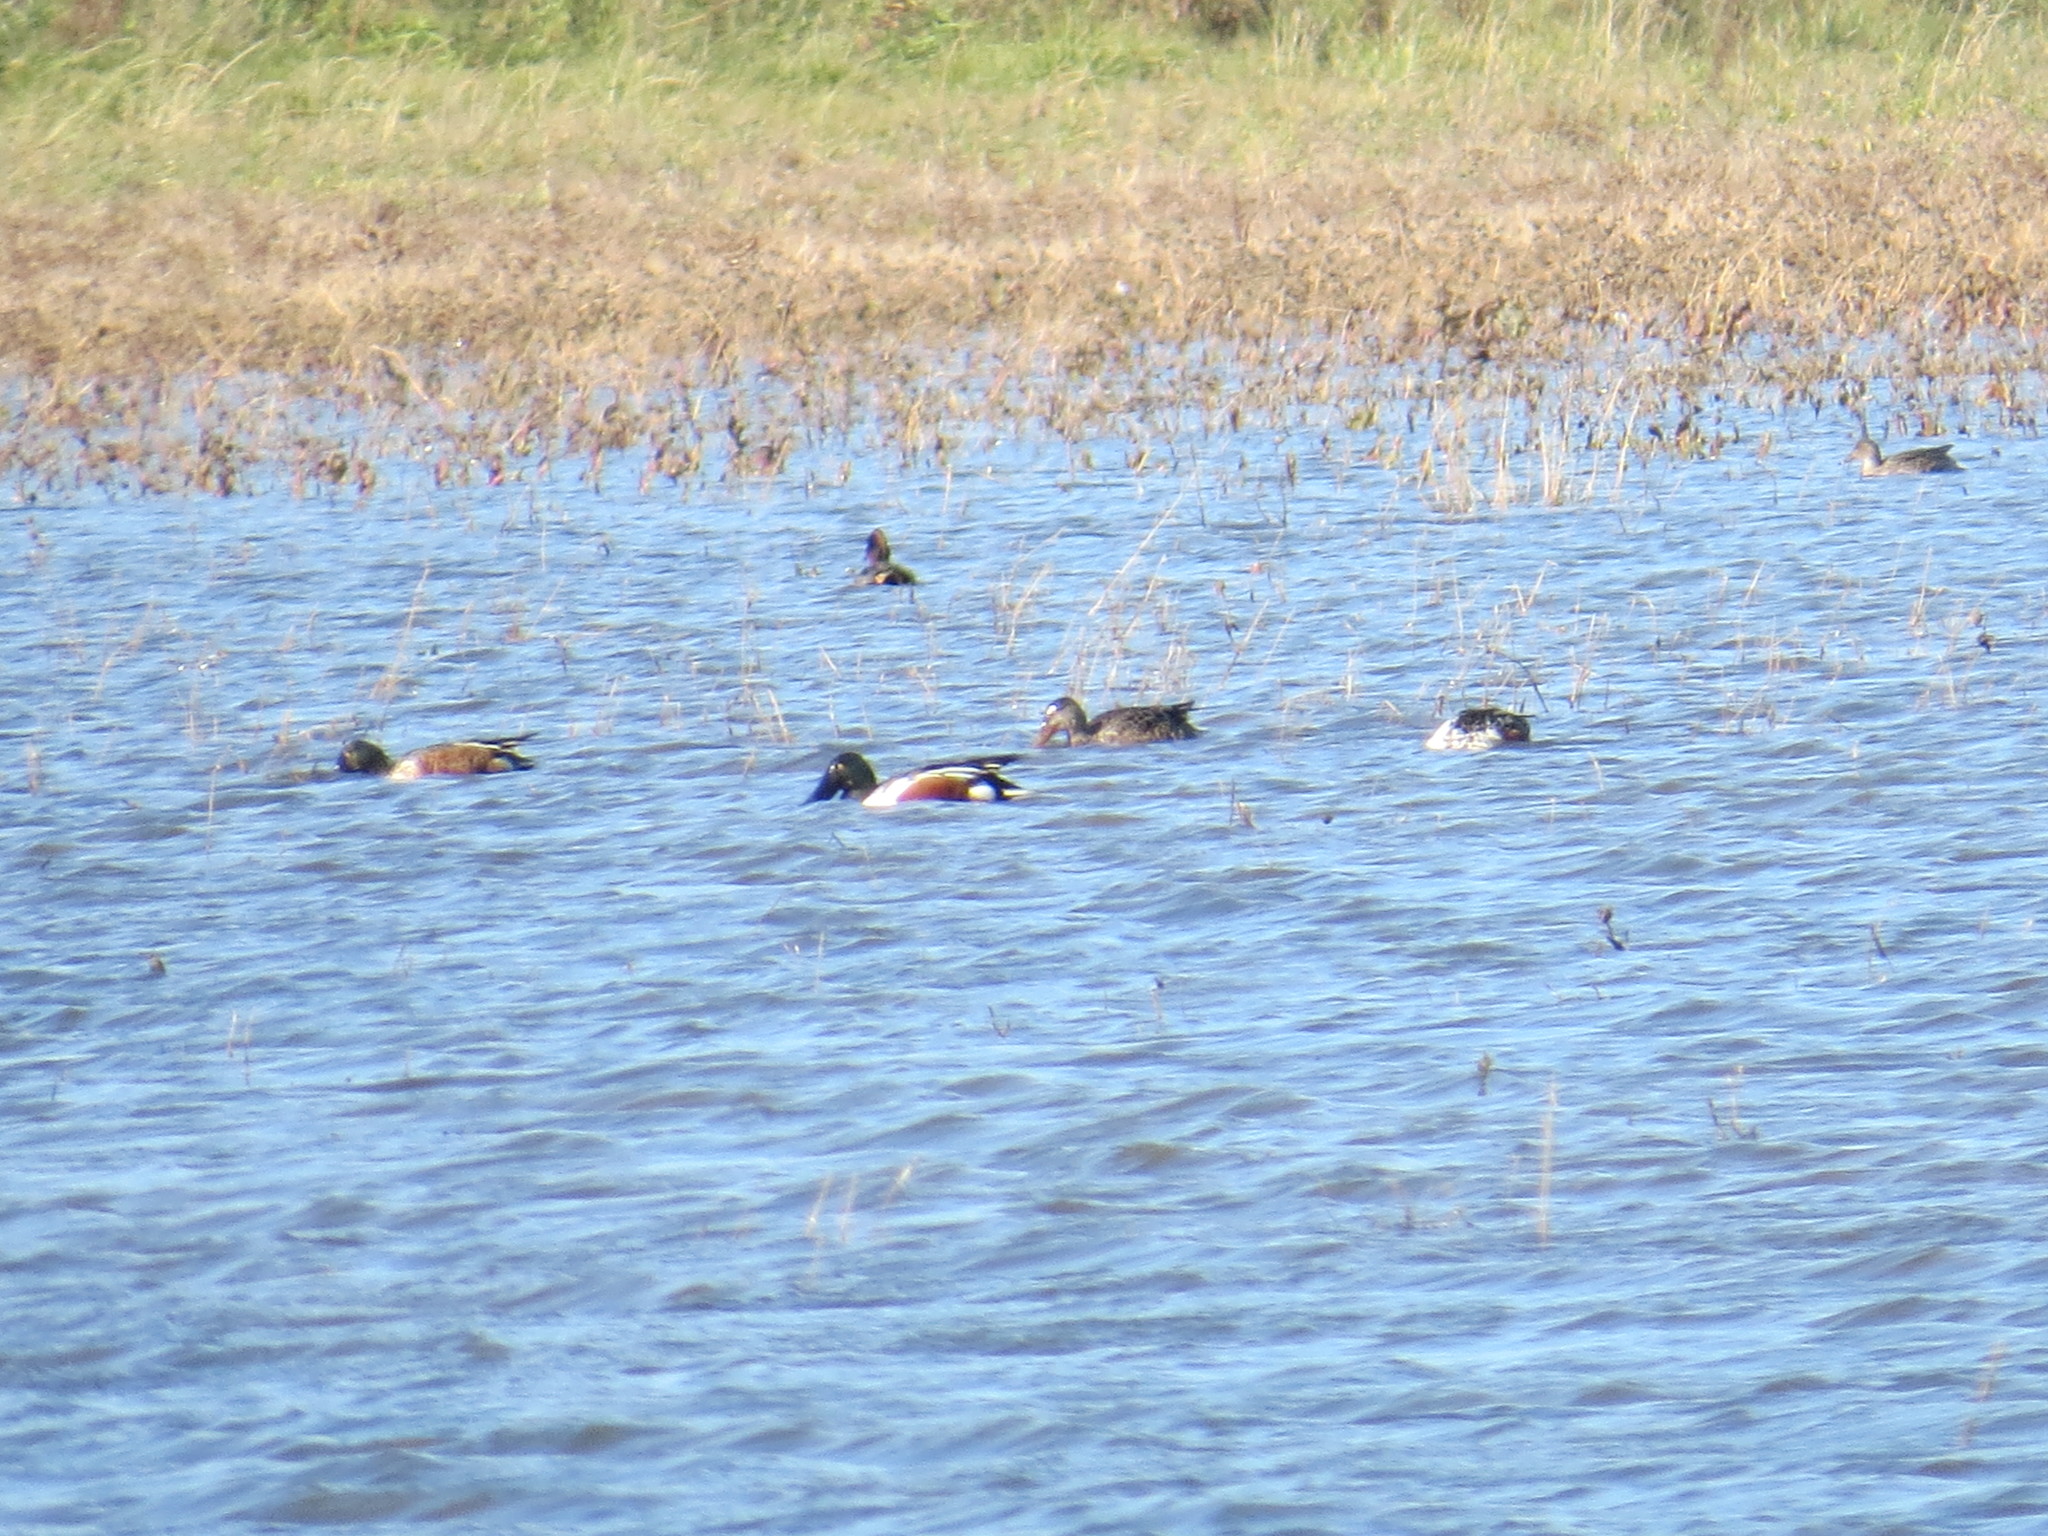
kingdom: Animalia
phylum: Chordata
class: Aves
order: Anseriformes
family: Anatidae
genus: Spatula
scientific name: Spatula clypeata
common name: Northern shoveler
